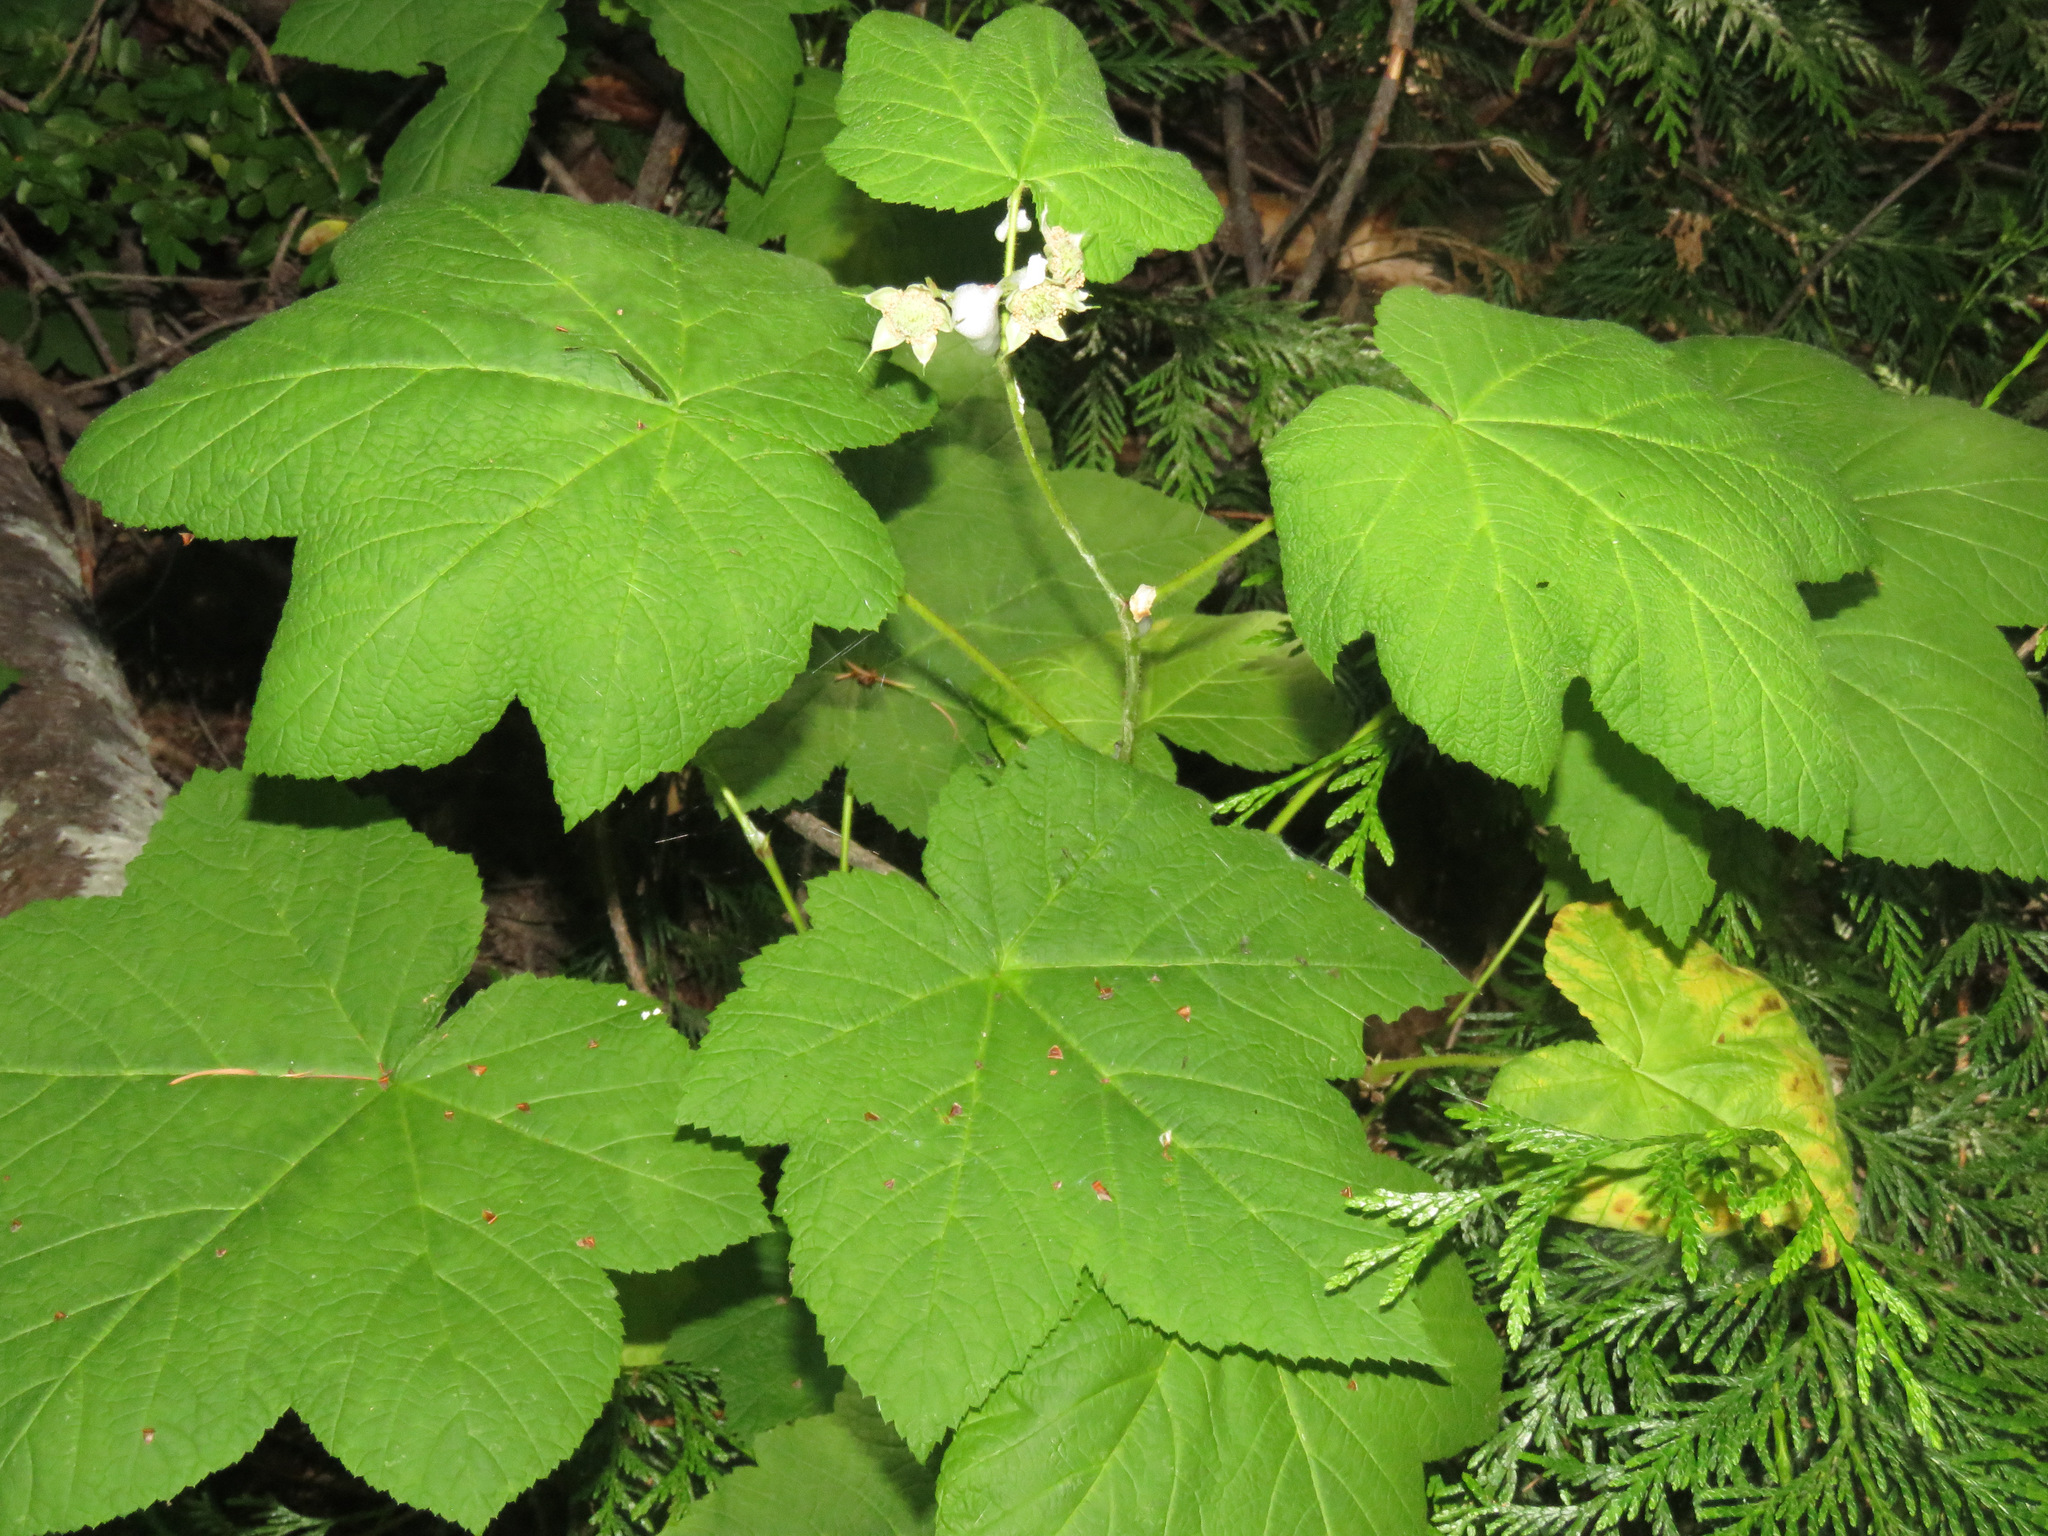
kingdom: Plantae
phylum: Tracheophyta
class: Magnoliopsida
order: Rosales
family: Rosaceae
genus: Rubus
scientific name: Rubus parviflorus
